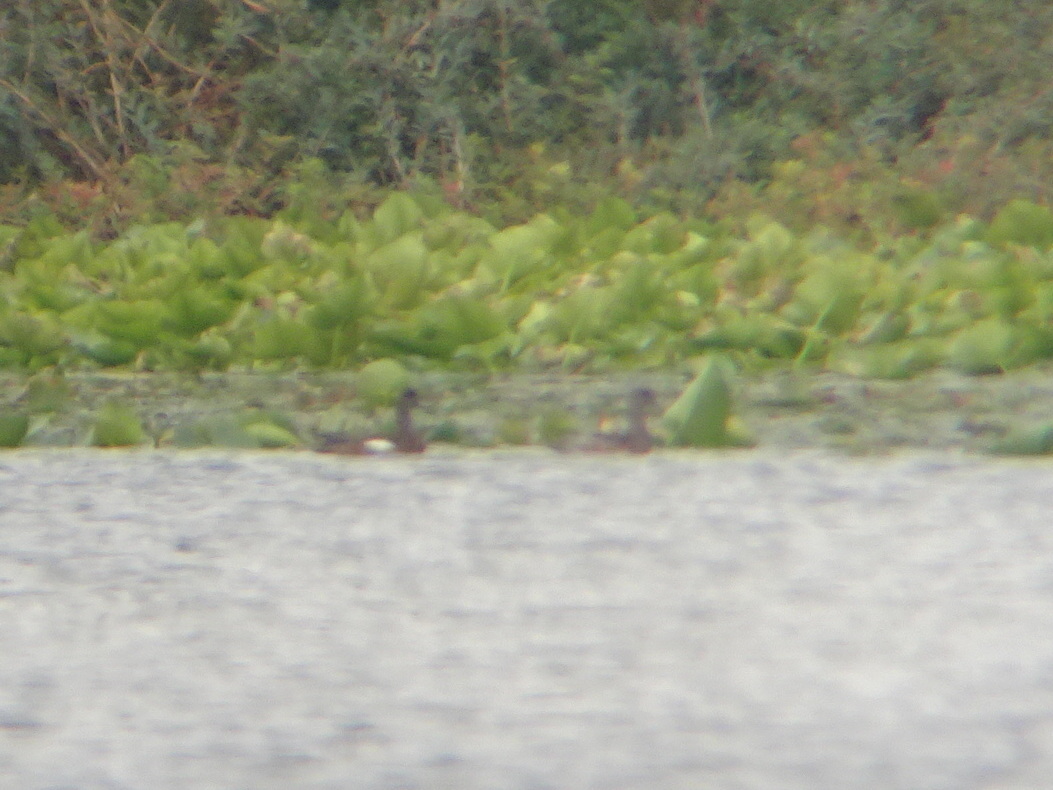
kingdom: Animalia
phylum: Chordata
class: Aves
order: Anseriformes
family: Anatidae
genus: Mareca
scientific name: Mareca americana
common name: American wigeon
